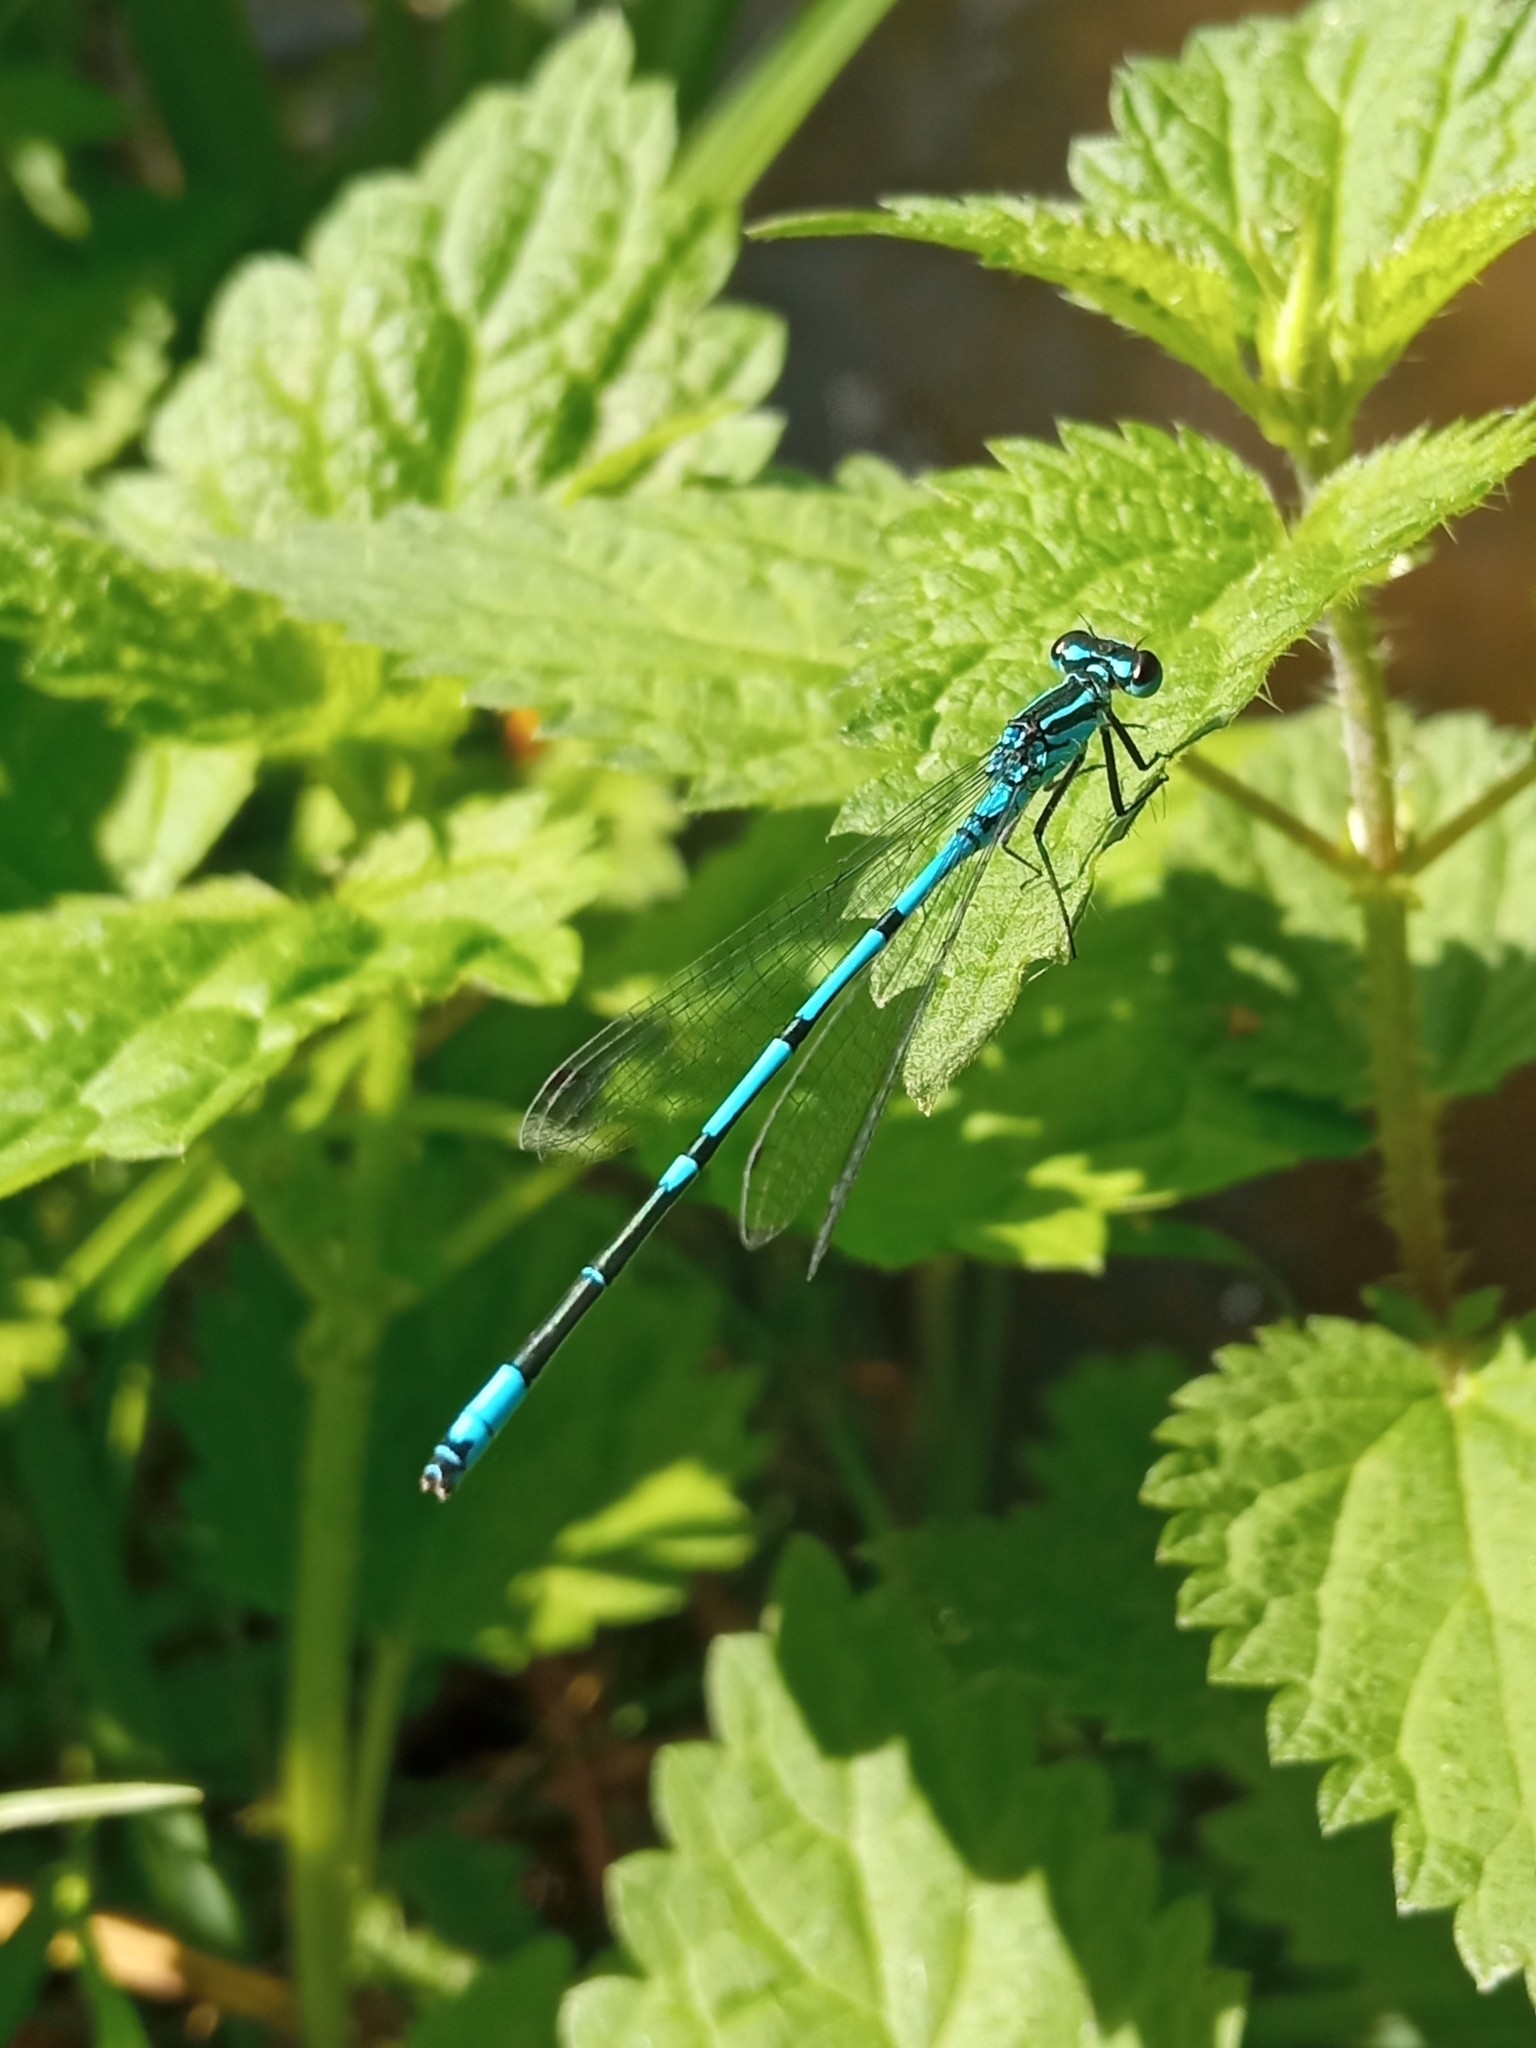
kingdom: Animalia
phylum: Arthropoda
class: Insecta
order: Odonata
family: Coenagrionidae
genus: Coenagrion
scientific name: Coenagrion puella
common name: Azure damselfly
